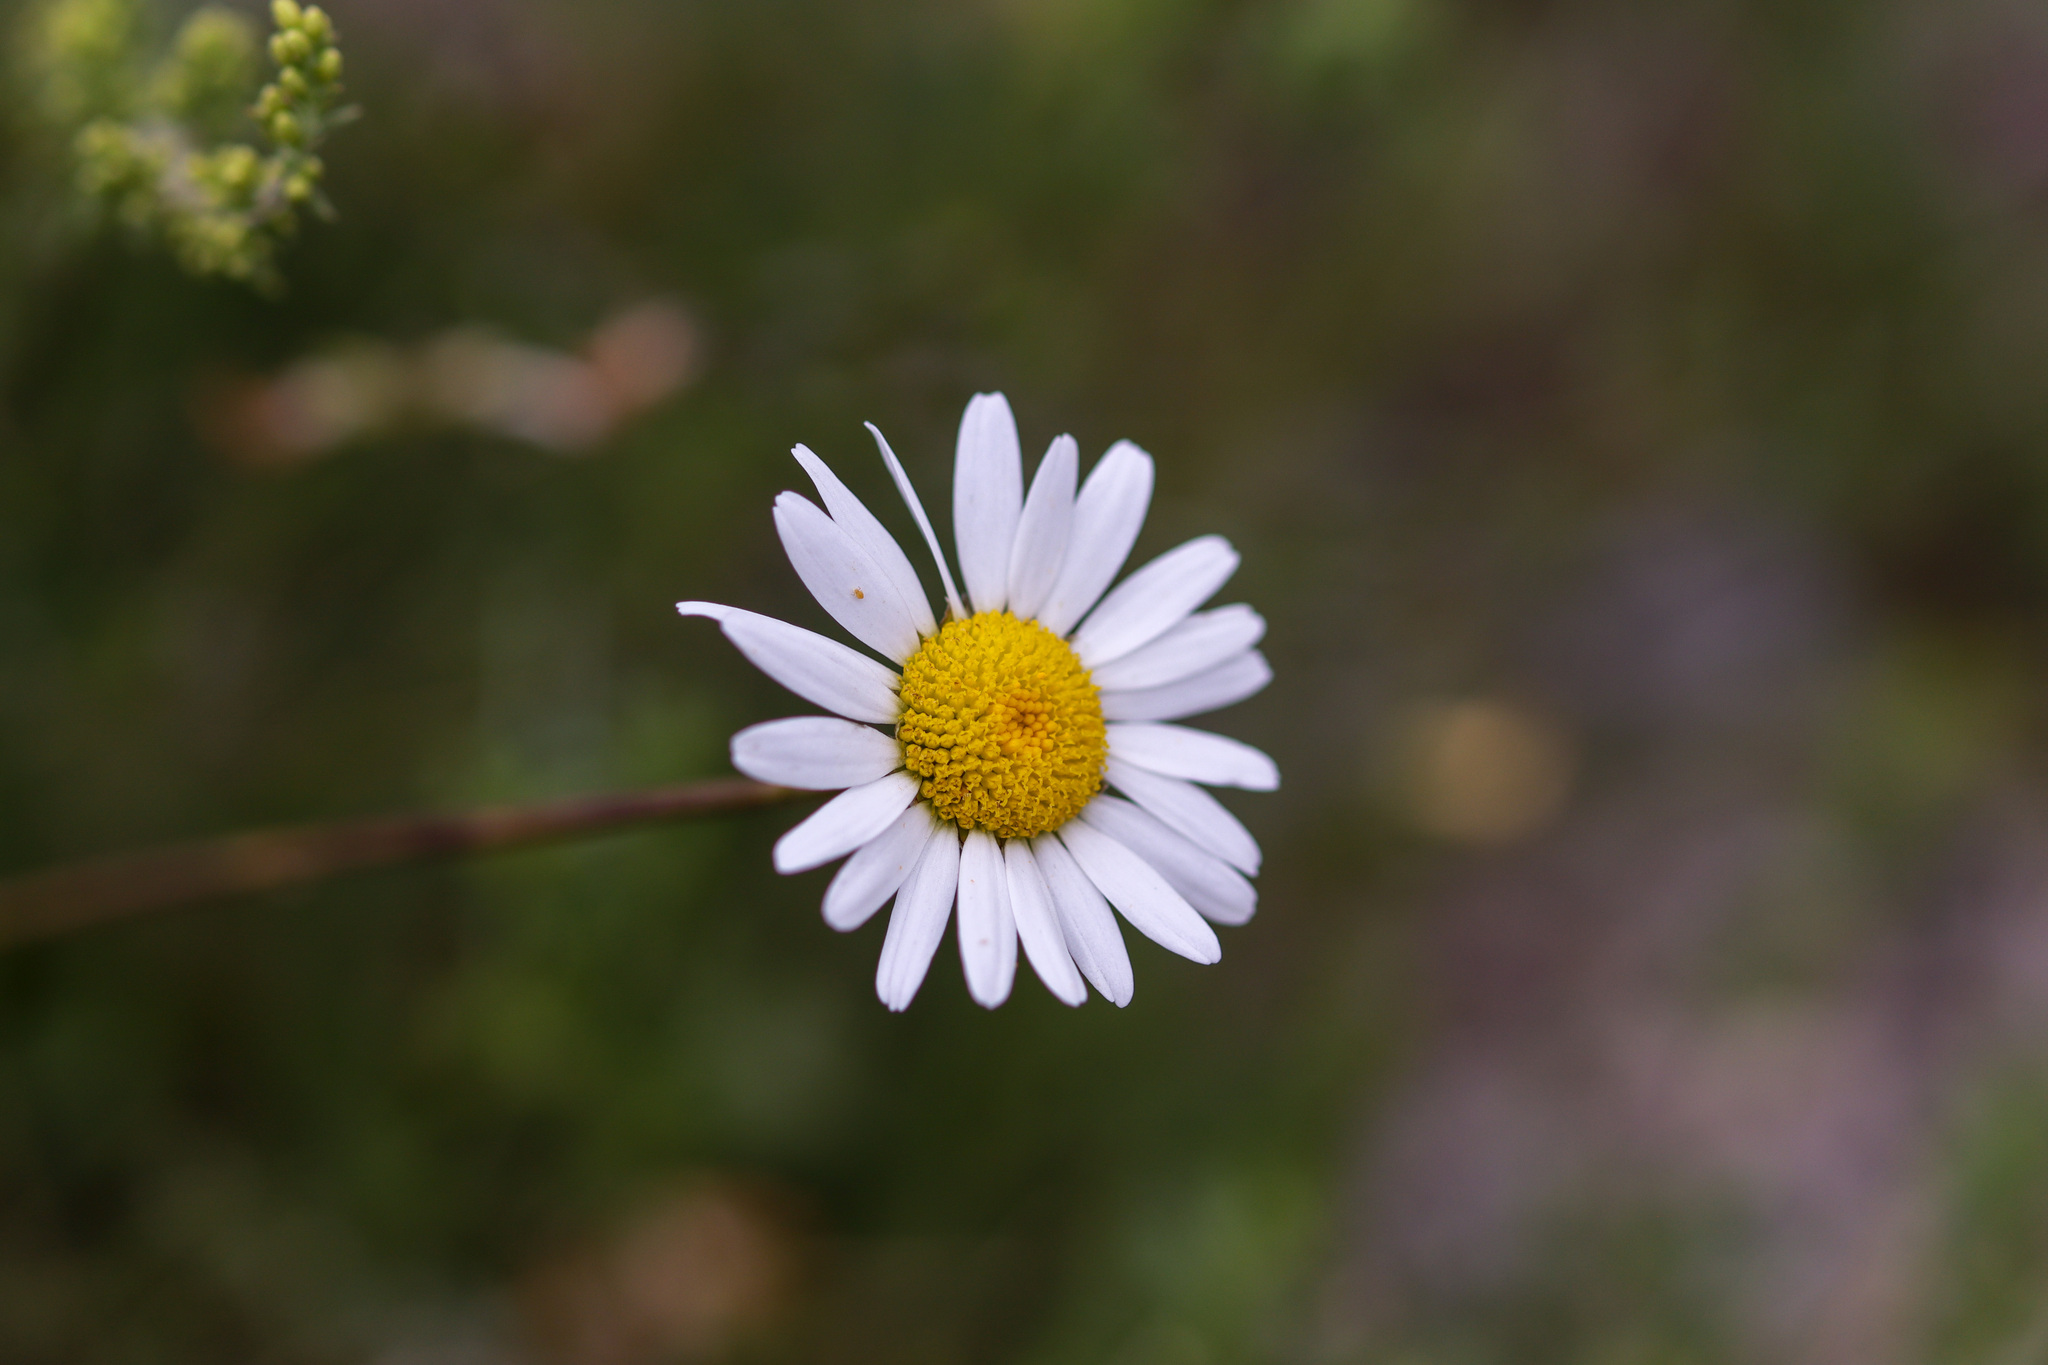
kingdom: Plantae
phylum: Tracheophyta
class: Magnoliopsida
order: Asterales
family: Asteraceae
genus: Leucanthemum
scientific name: Leucanthemum vulgare
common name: Oxeye daisy
